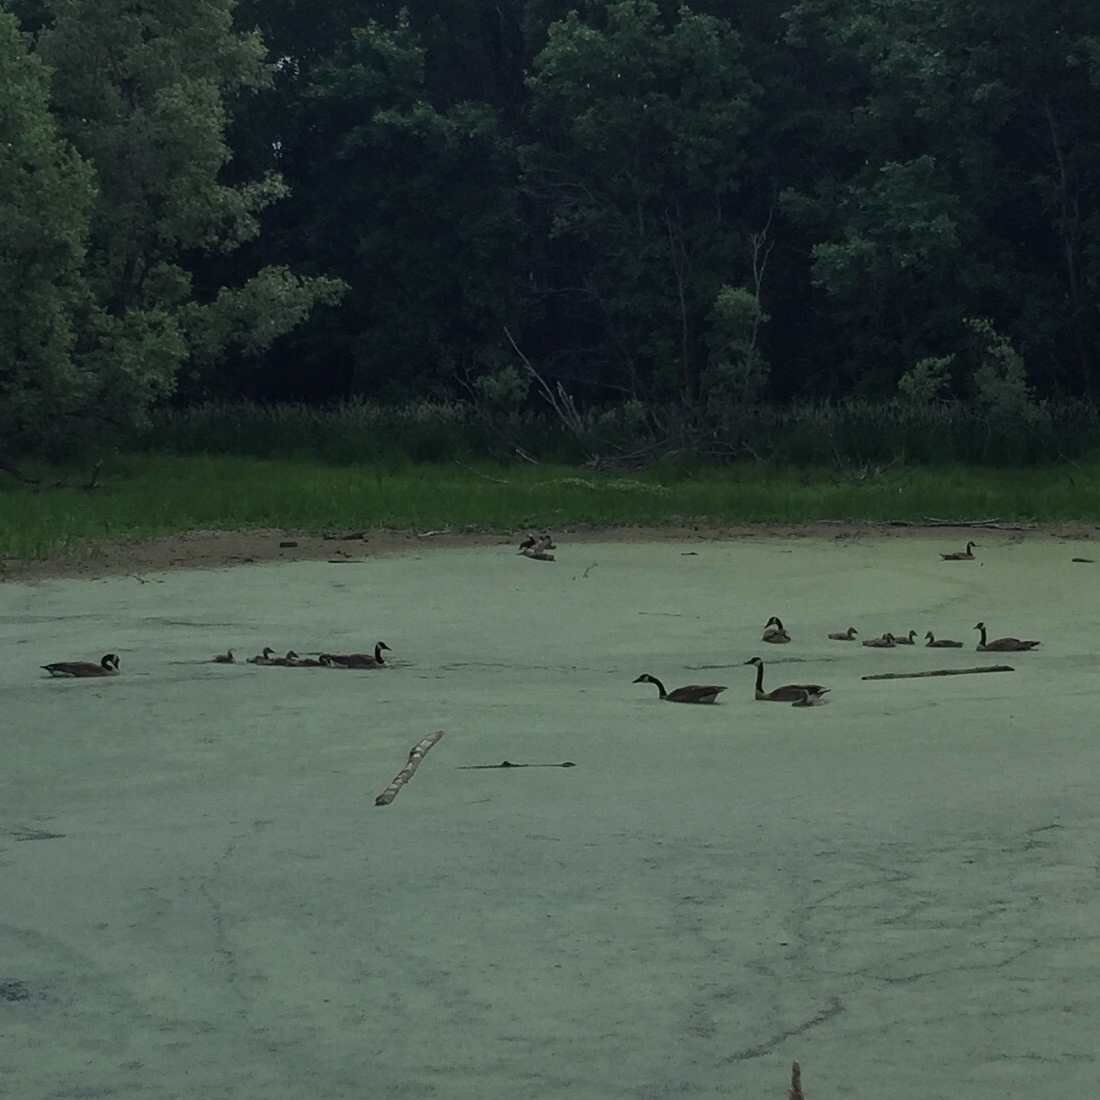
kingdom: Animalia
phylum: Chordata
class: Aves
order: Anseriformes
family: Anatidae
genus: Branta
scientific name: Branta canadensis
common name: Canada goose
